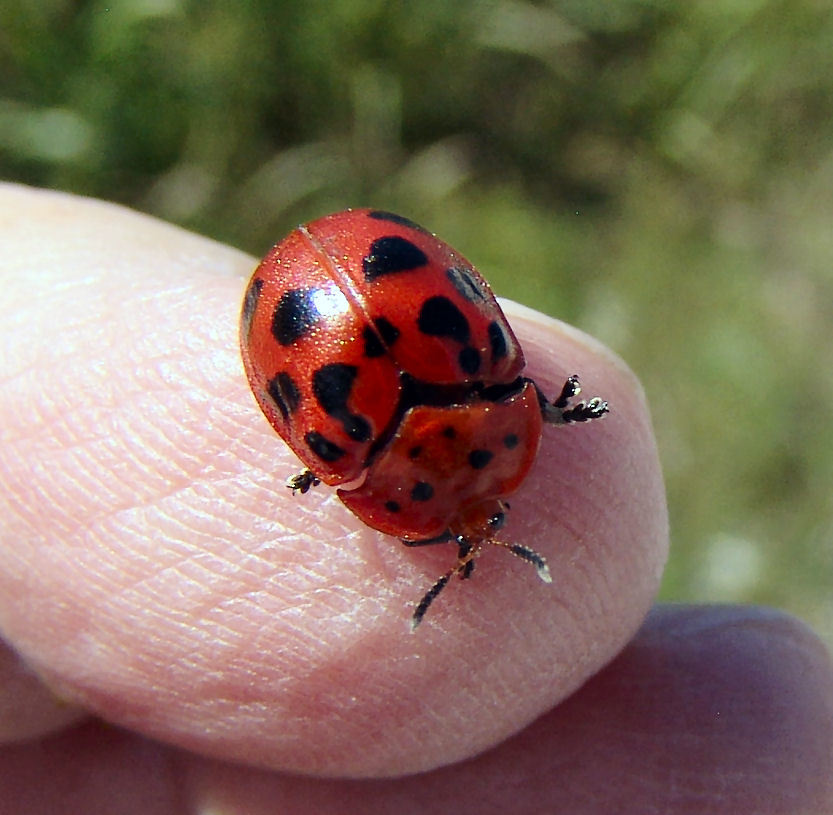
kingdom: Animalia
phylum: Arthropoda
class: Insecta
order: Coleoptera
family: Chrysomelidae
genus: Chelymorpha
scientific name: Chelymorpha cassidea
